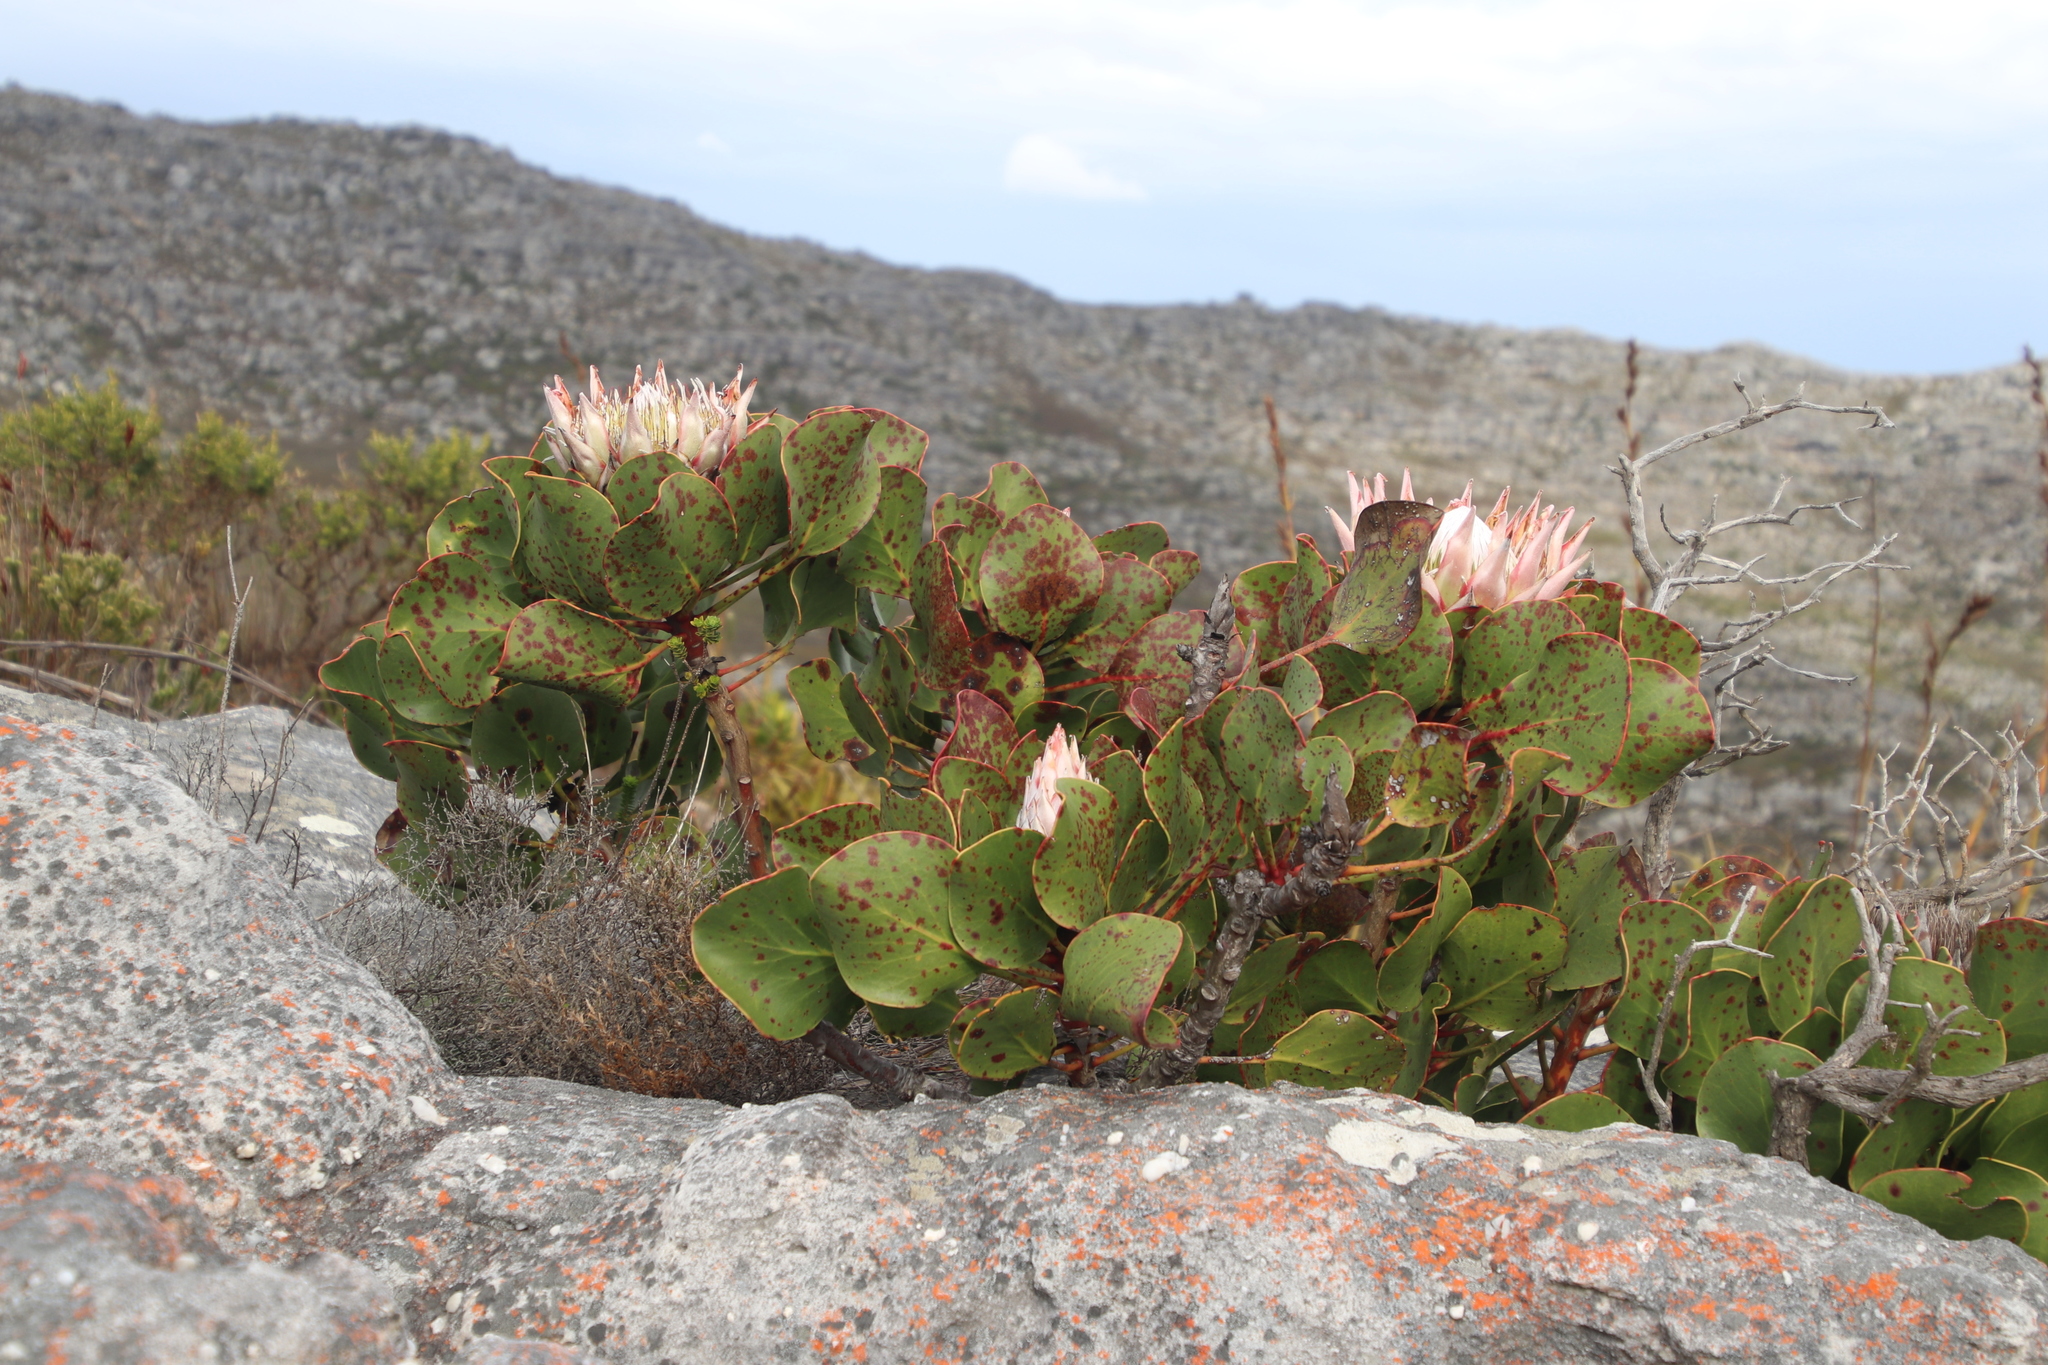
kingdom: Plantae
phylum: Tracheophyta
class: Magnoliopsida
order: Proteales
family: Proteaceae
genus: Protea
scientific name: Protea cynaroides
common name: King protea
